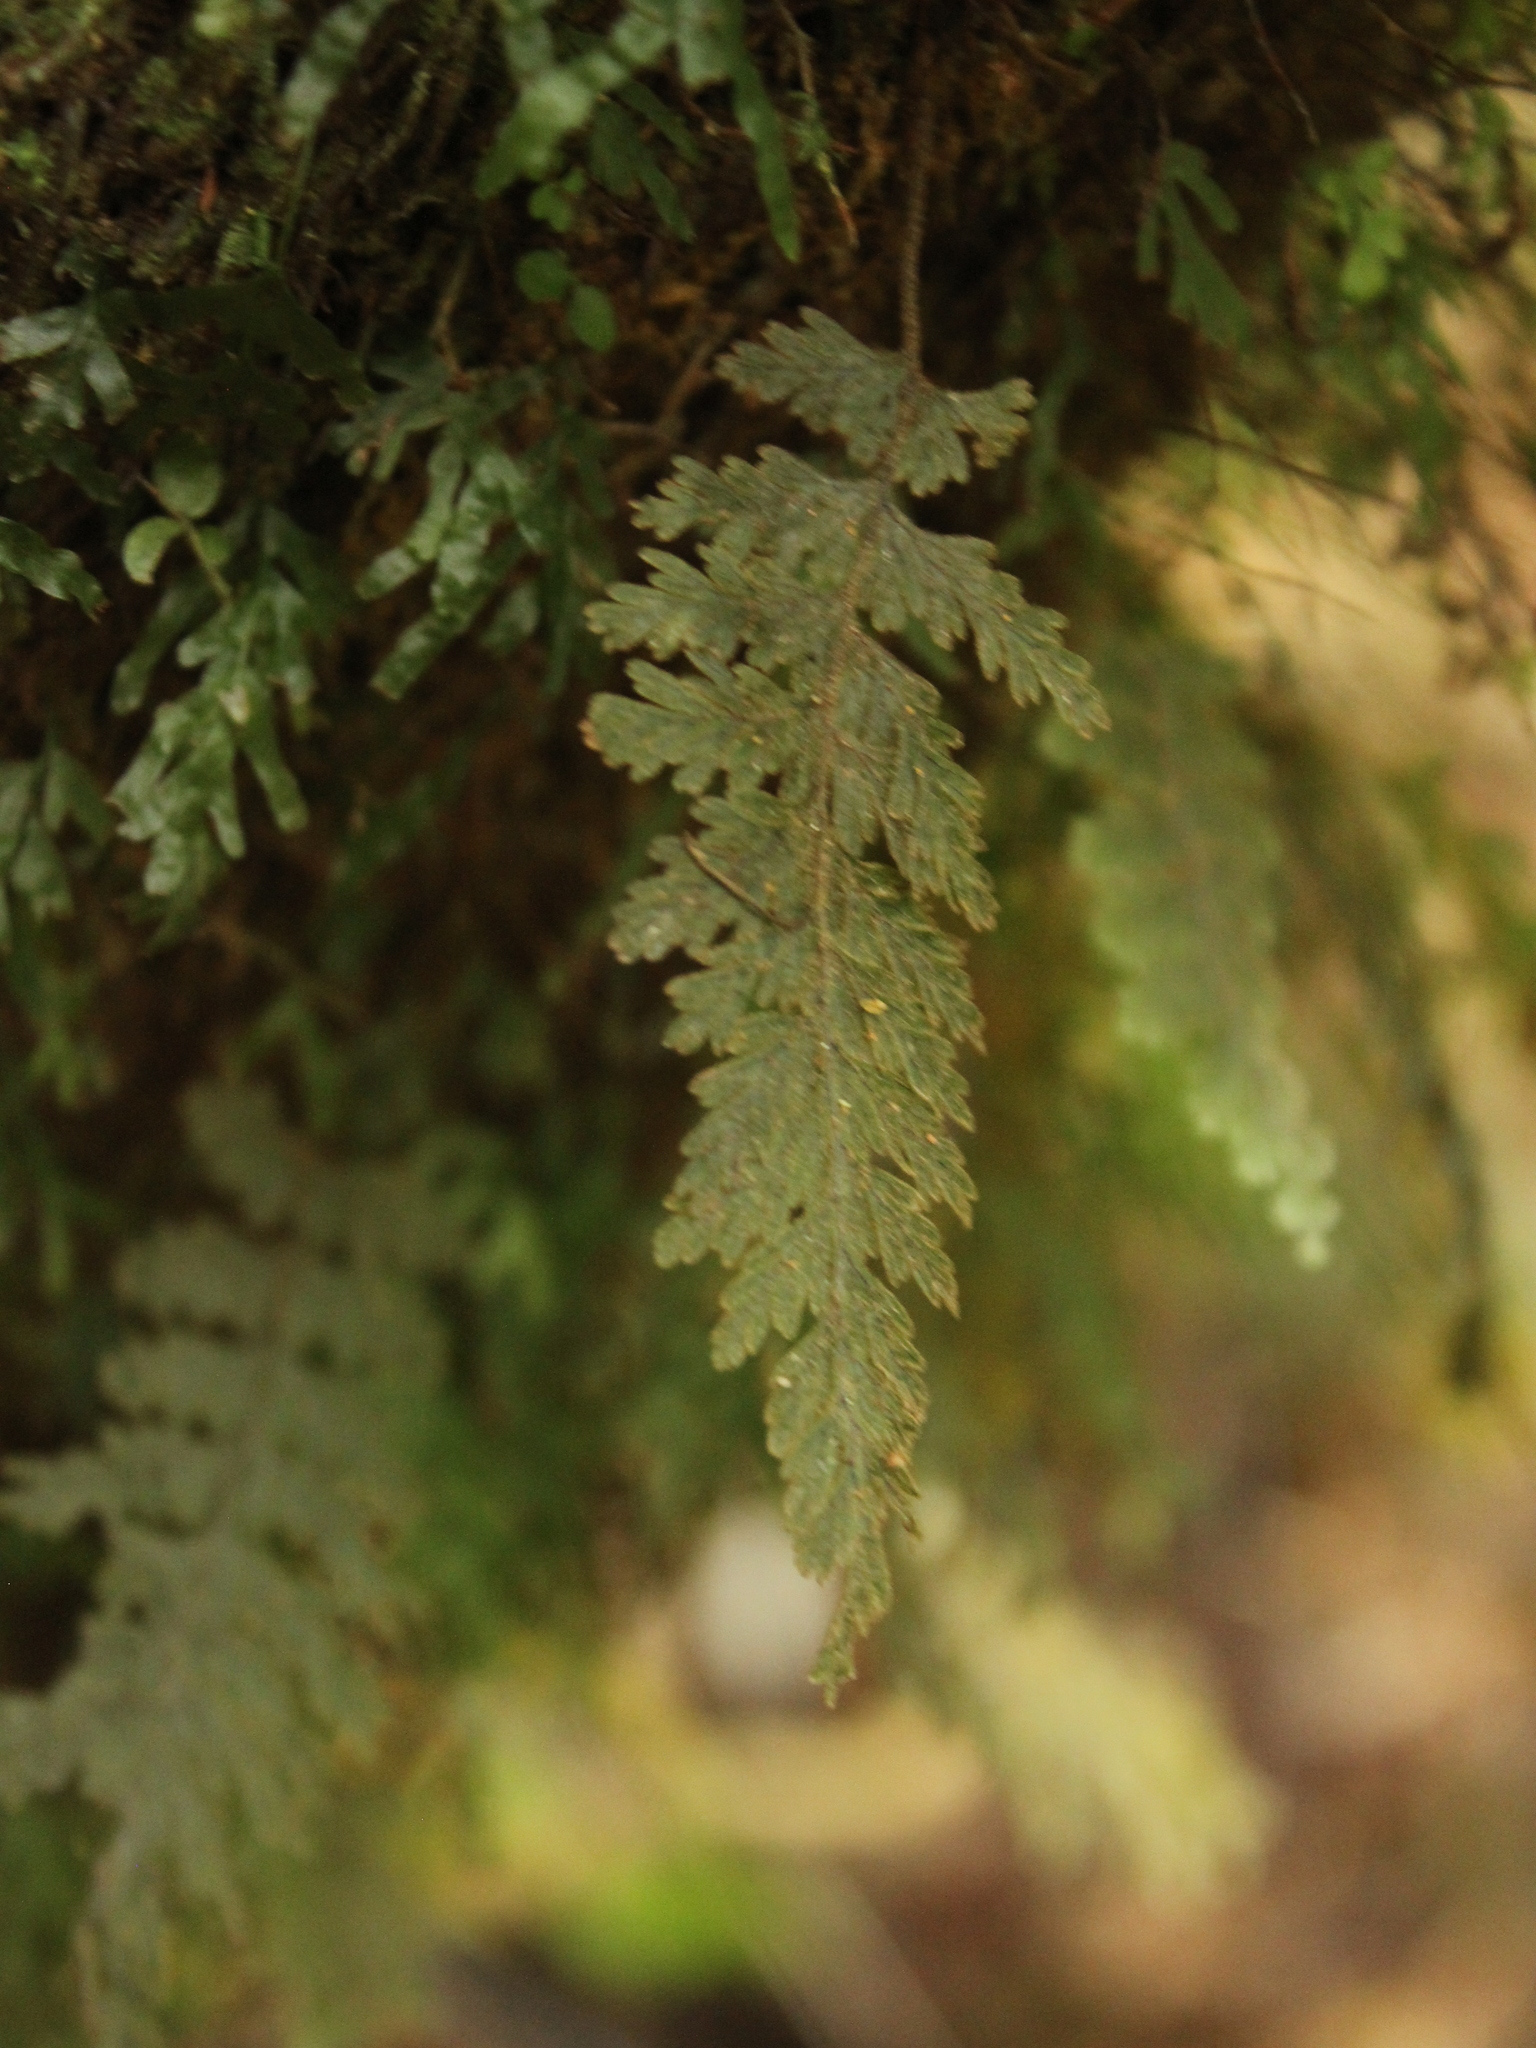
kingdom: Plantae
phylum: Tracheophyta
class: Polypodiopsida
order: Hymenophyllales
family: Hymenophyllaceae
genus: Hymenophyllum
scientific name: Hymenophyllum frankliniae
